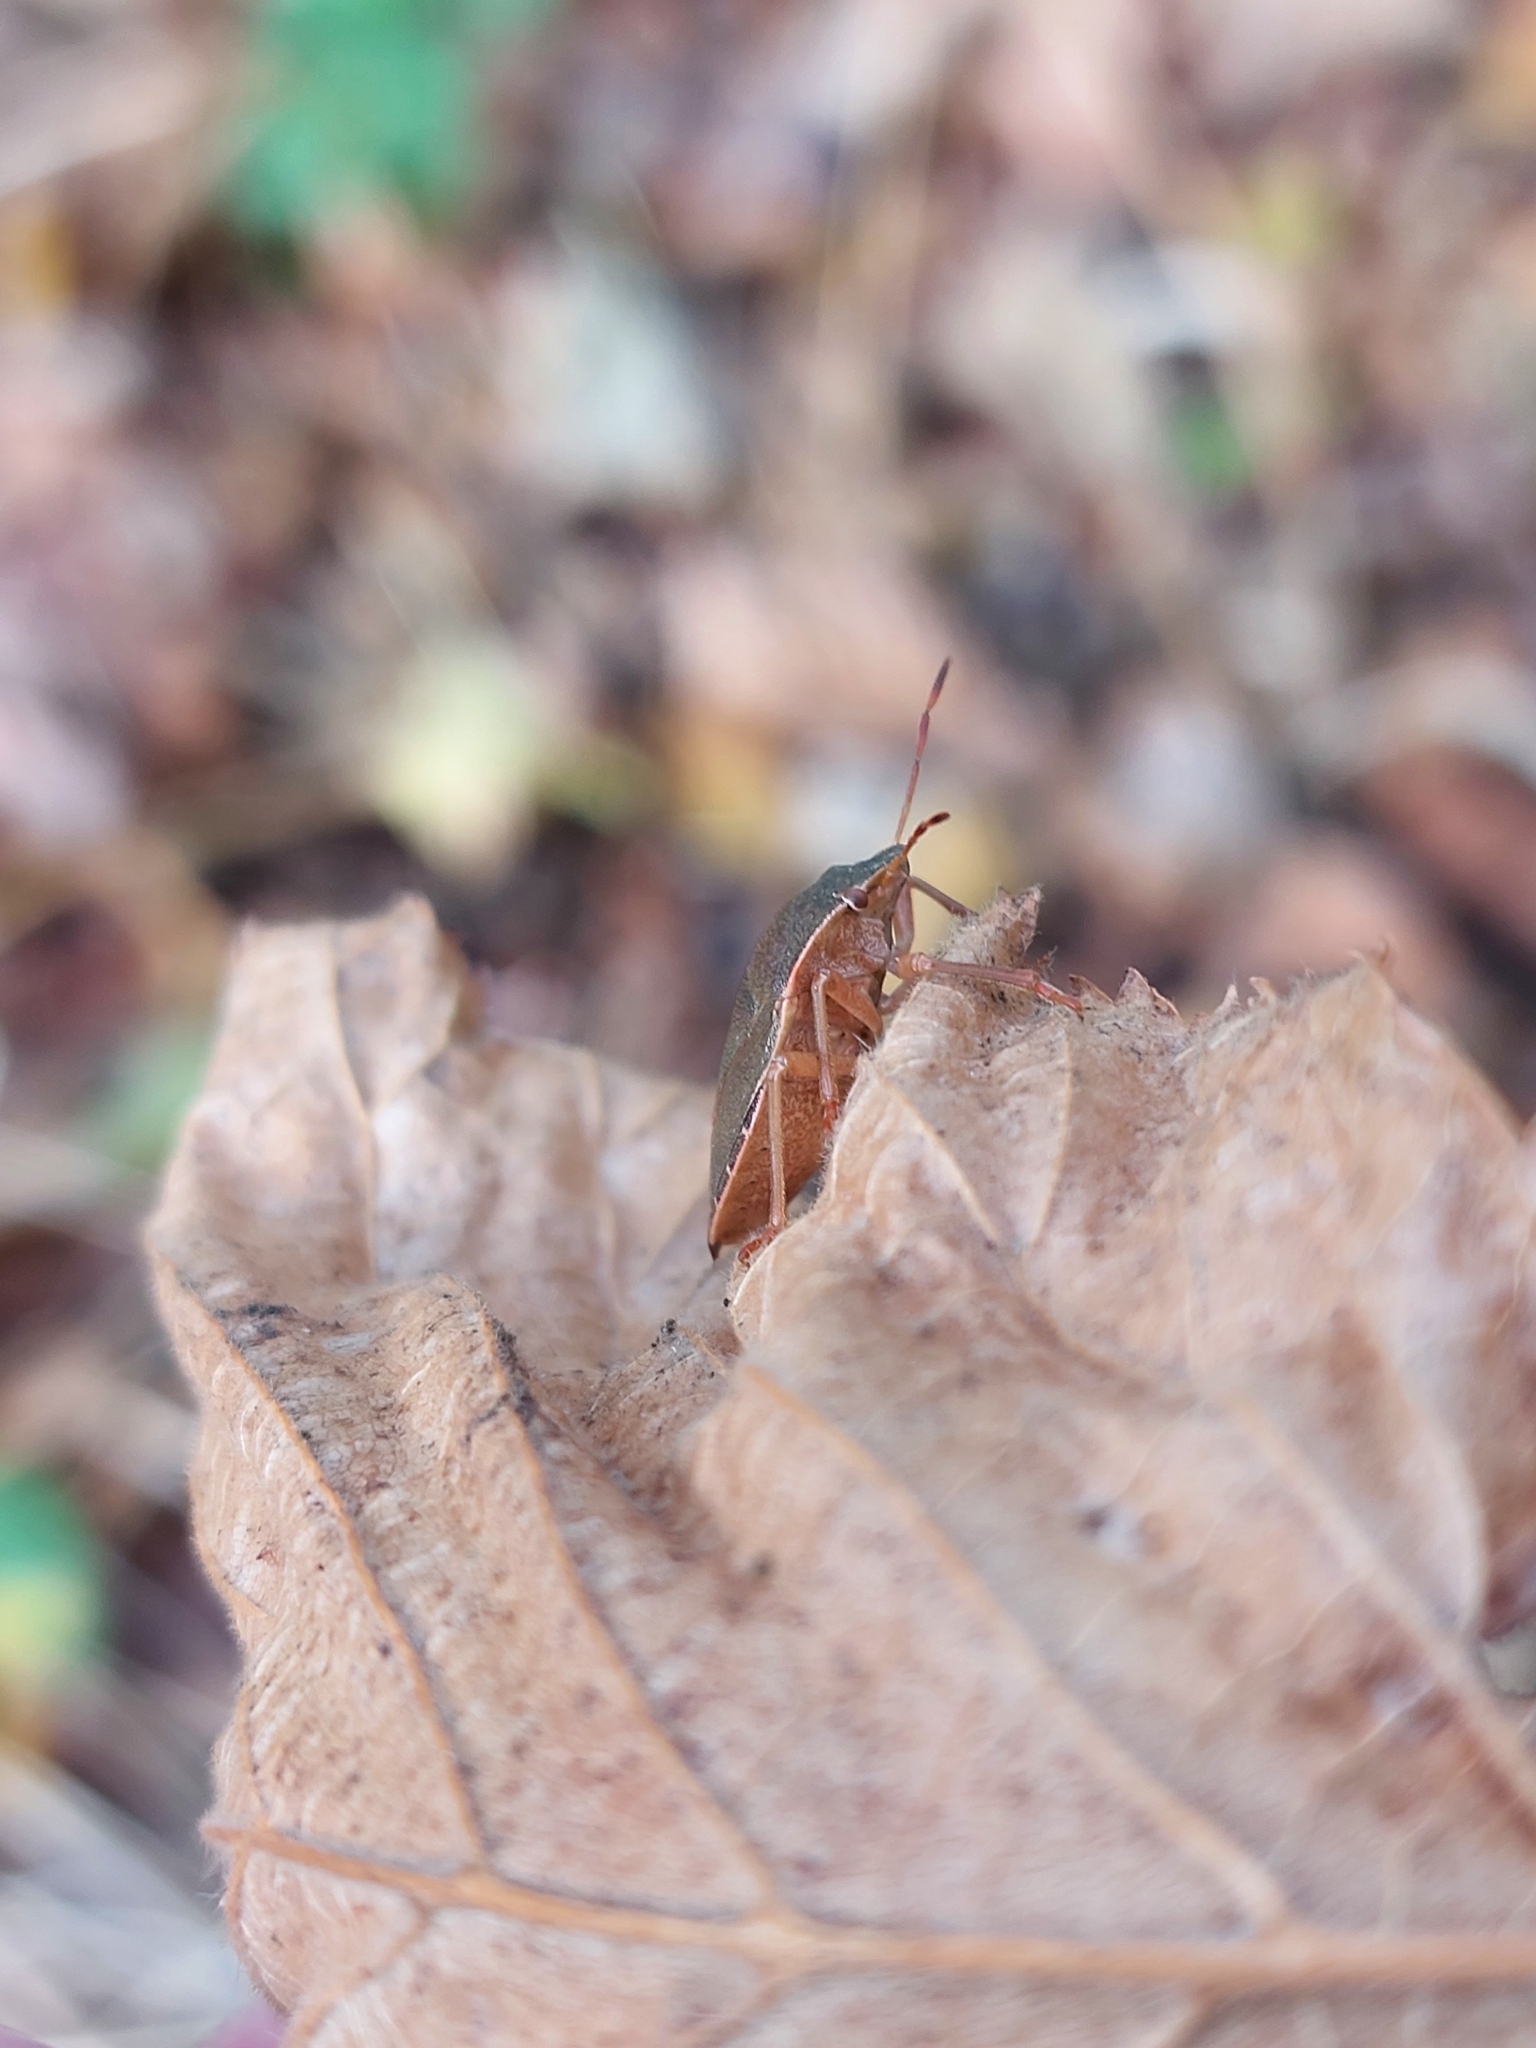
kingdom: Animalia
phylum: Arthropoda
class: Insecta
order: Hemiptera
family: Pentatomidae
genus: Palomena
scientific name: Palomena prasina
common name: Green shieldbug
